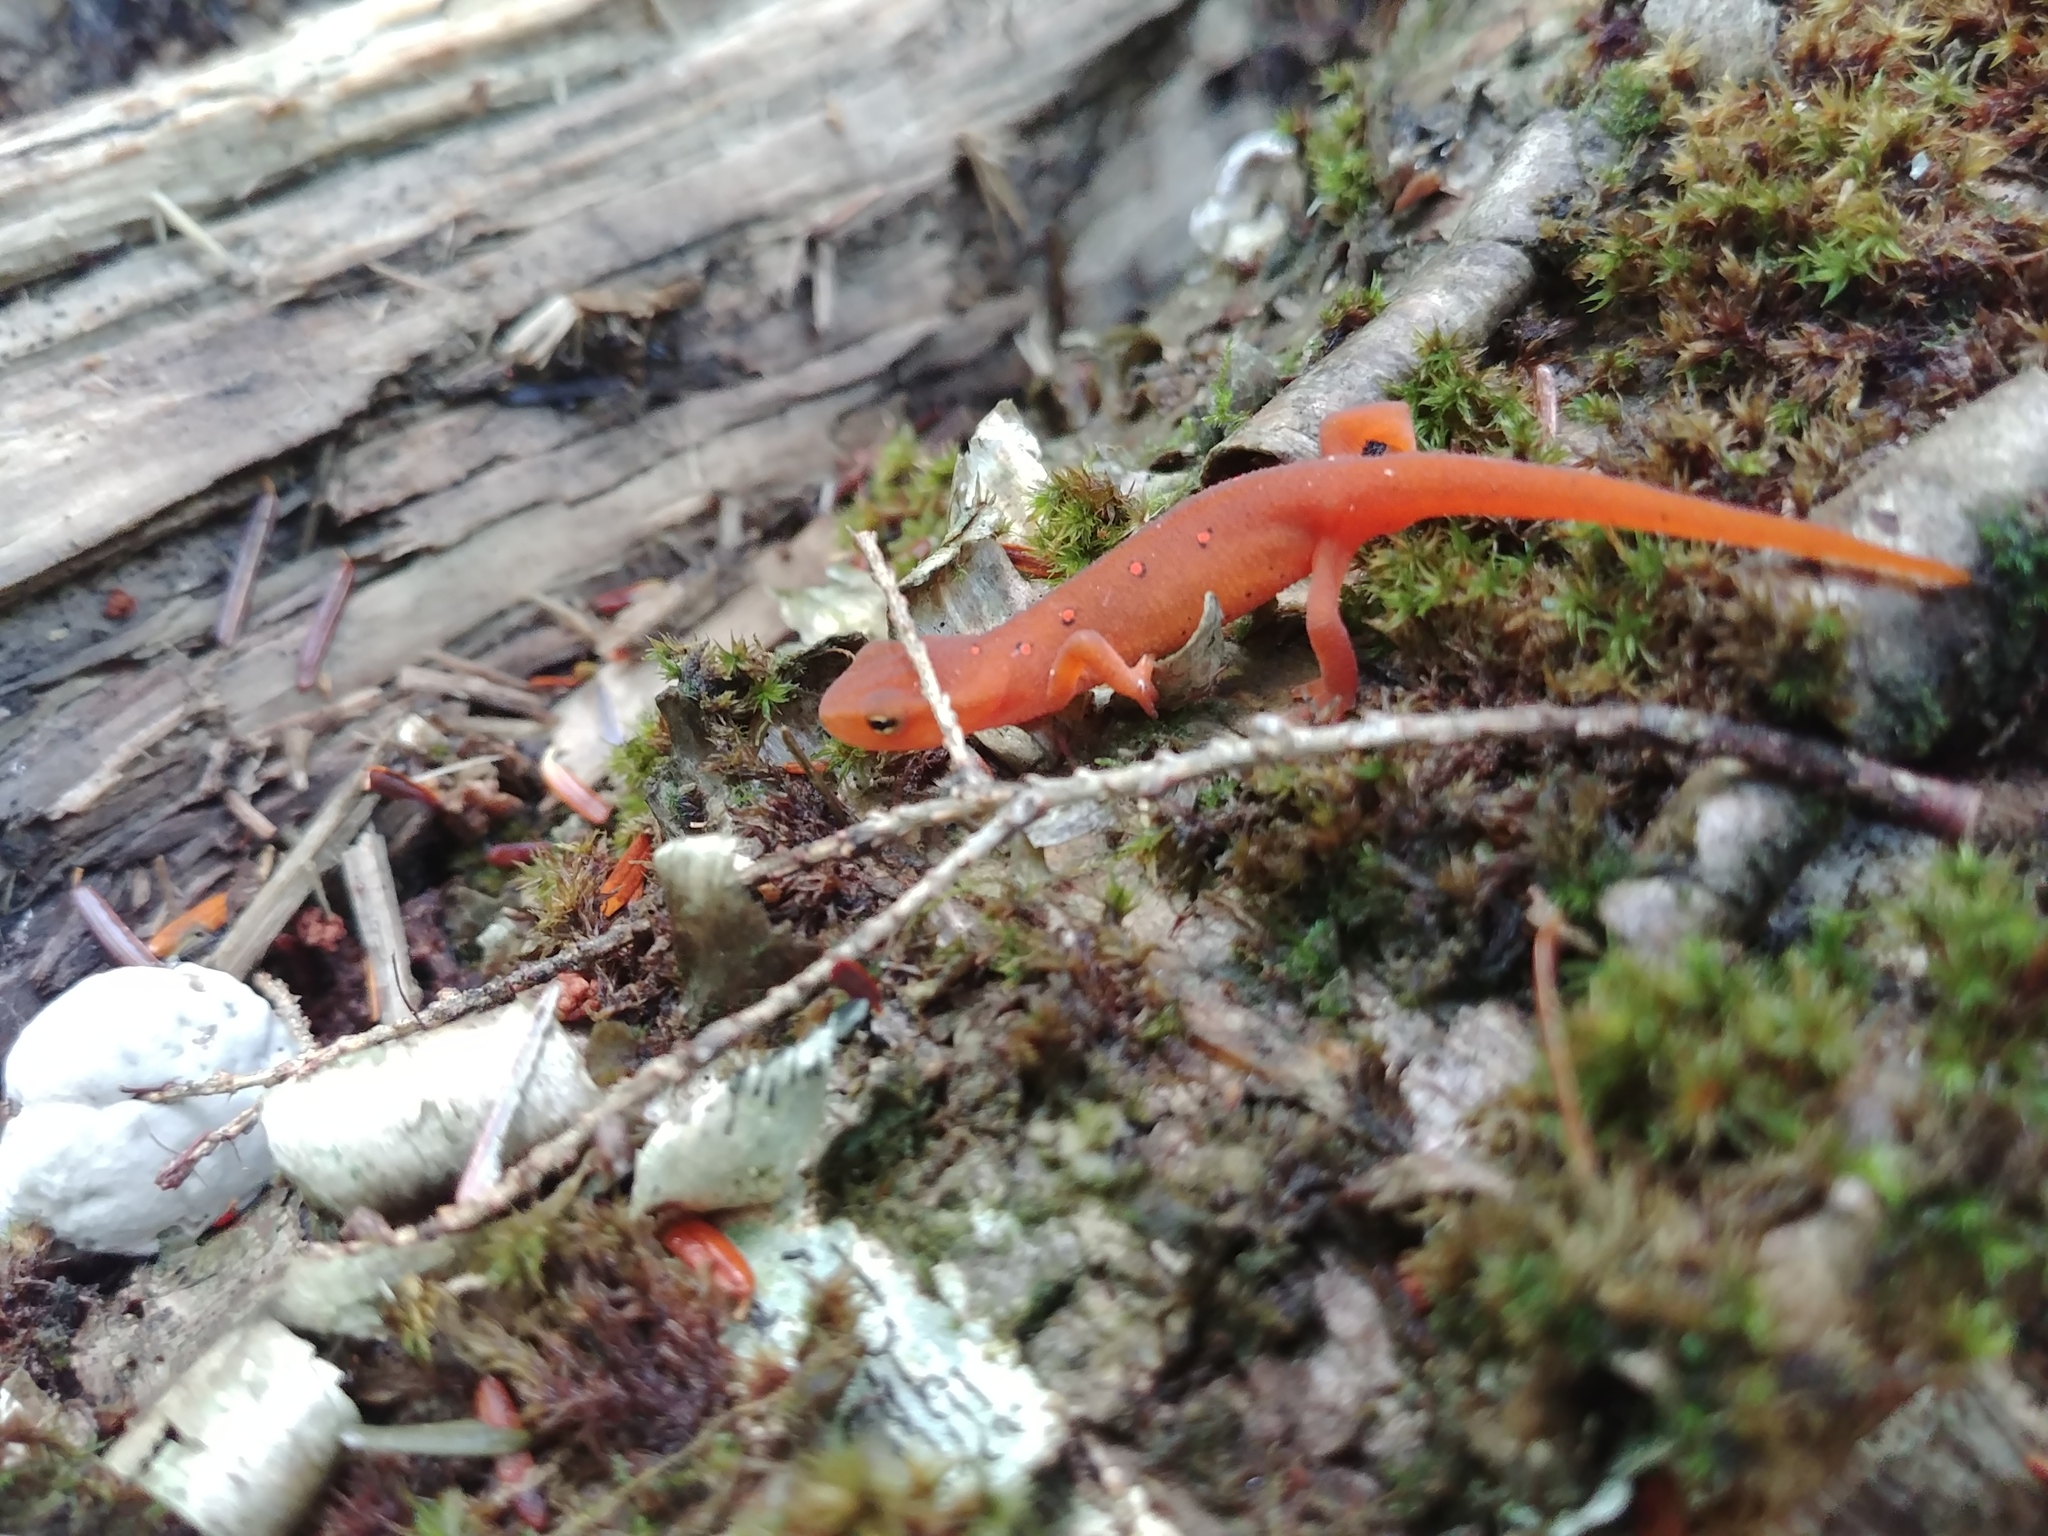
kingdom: Animalia
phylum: Chordata
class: Amphibia
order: Caudata
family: Salamandridae
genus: Notophthalmus
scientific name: Notophthalmus viridescens
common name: Eastern newt
